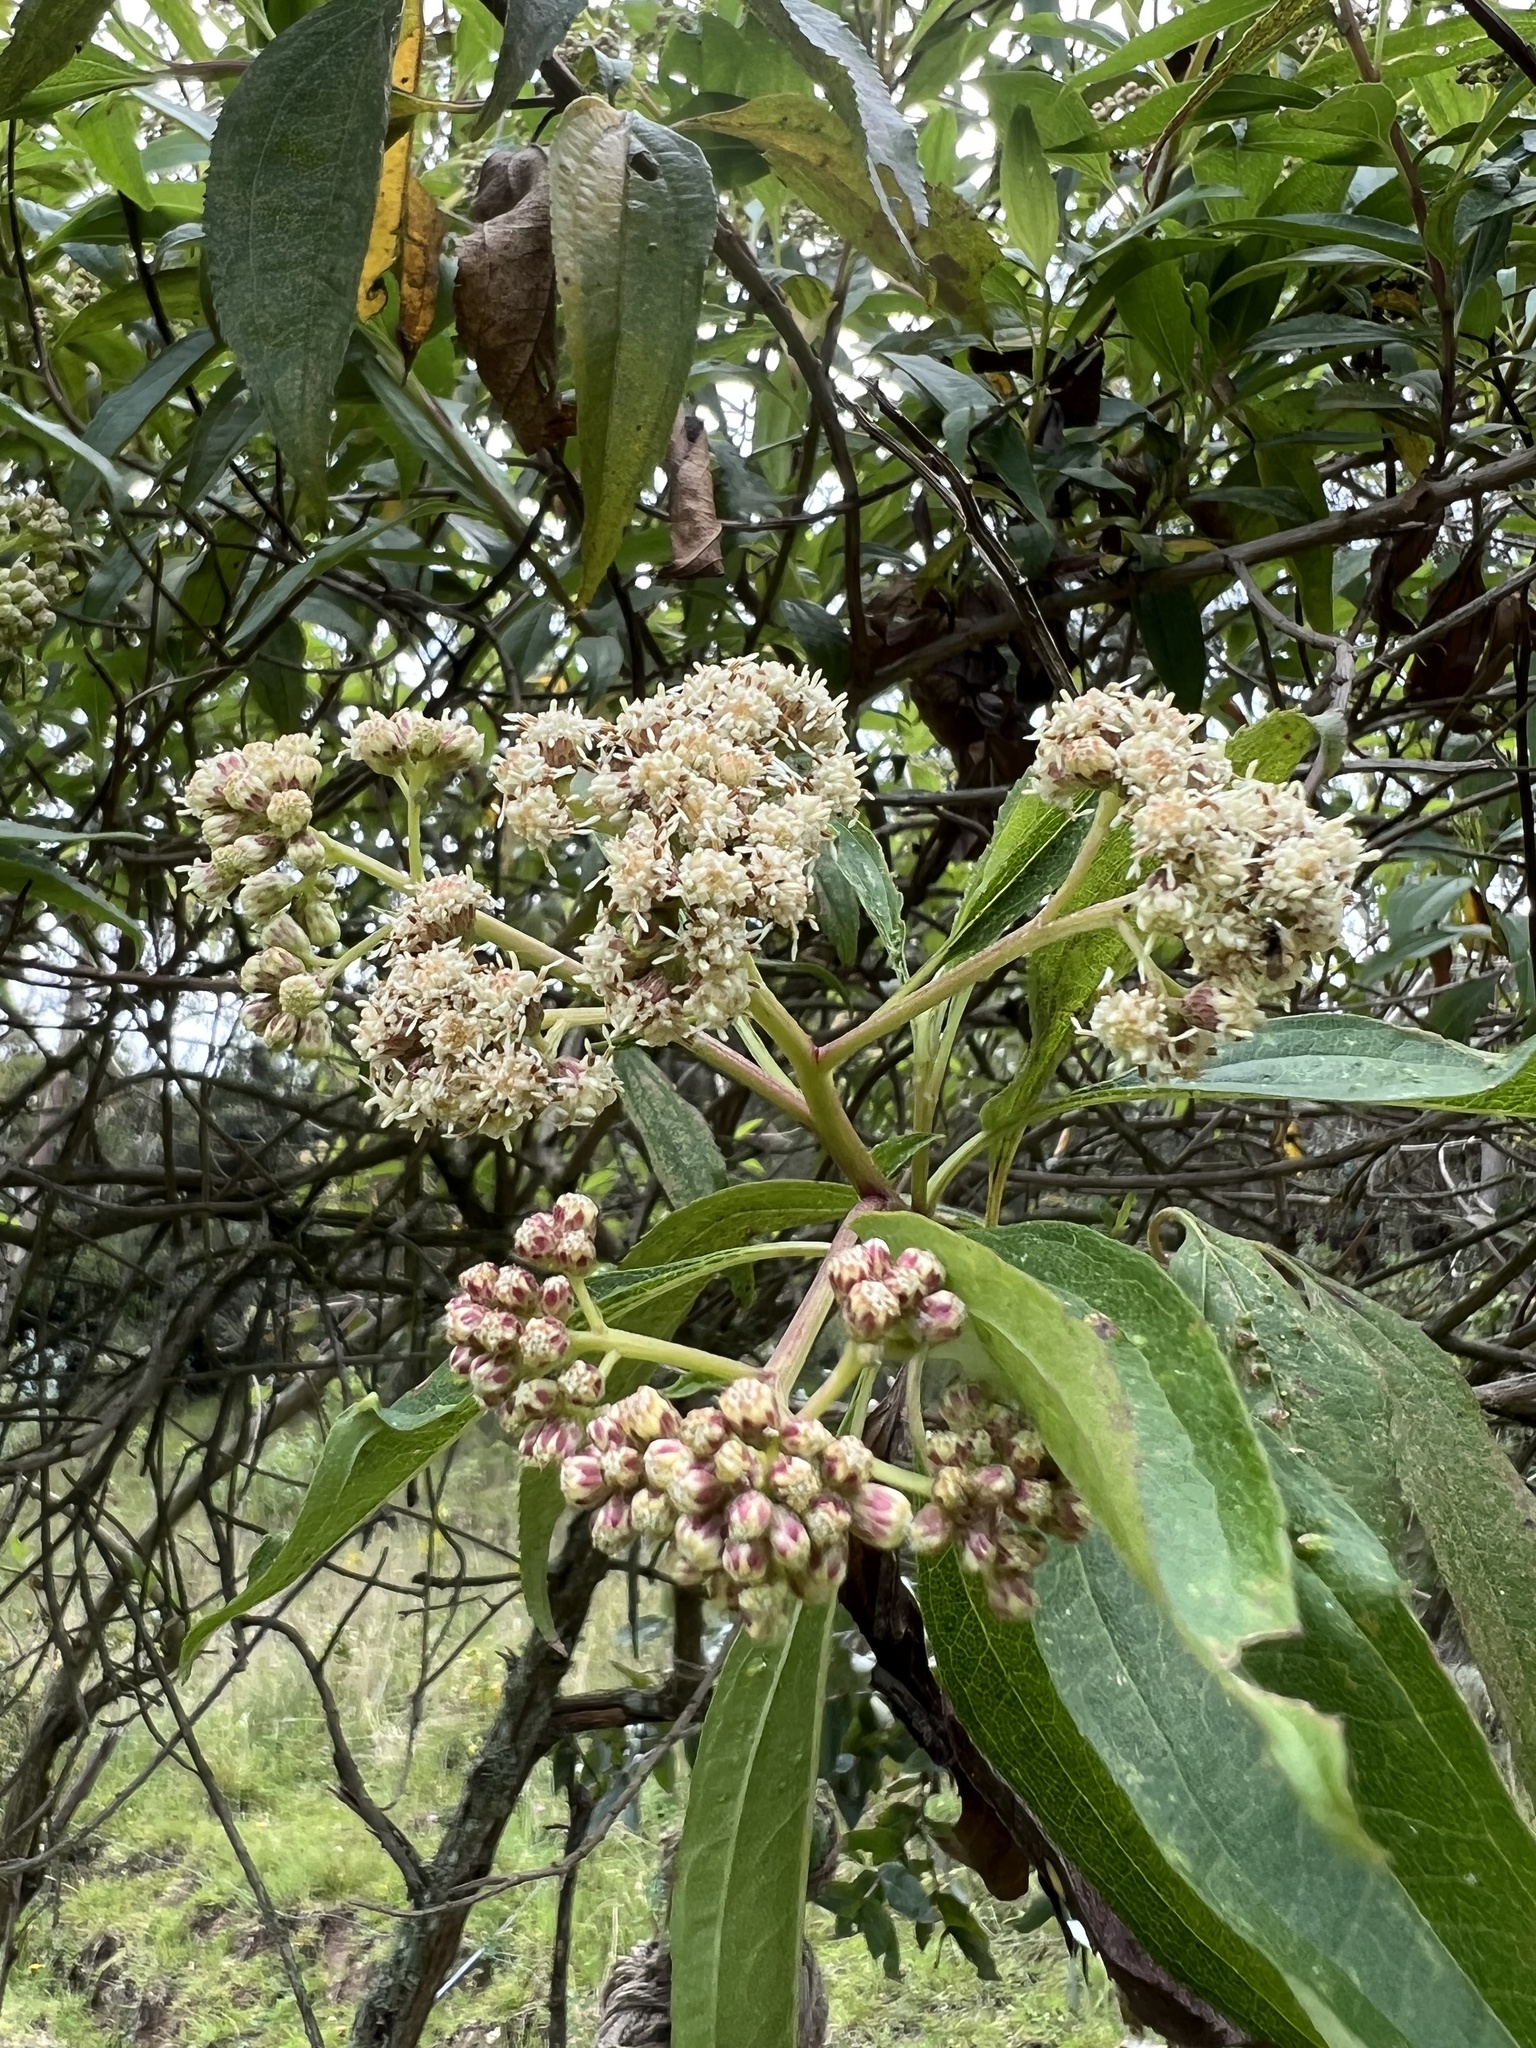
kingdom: Plantae
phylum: Tracheophyta
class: Magnoliopsida
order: Asterales
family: Asteraceae
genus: Baccharis
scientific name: Baccharis latifolia
